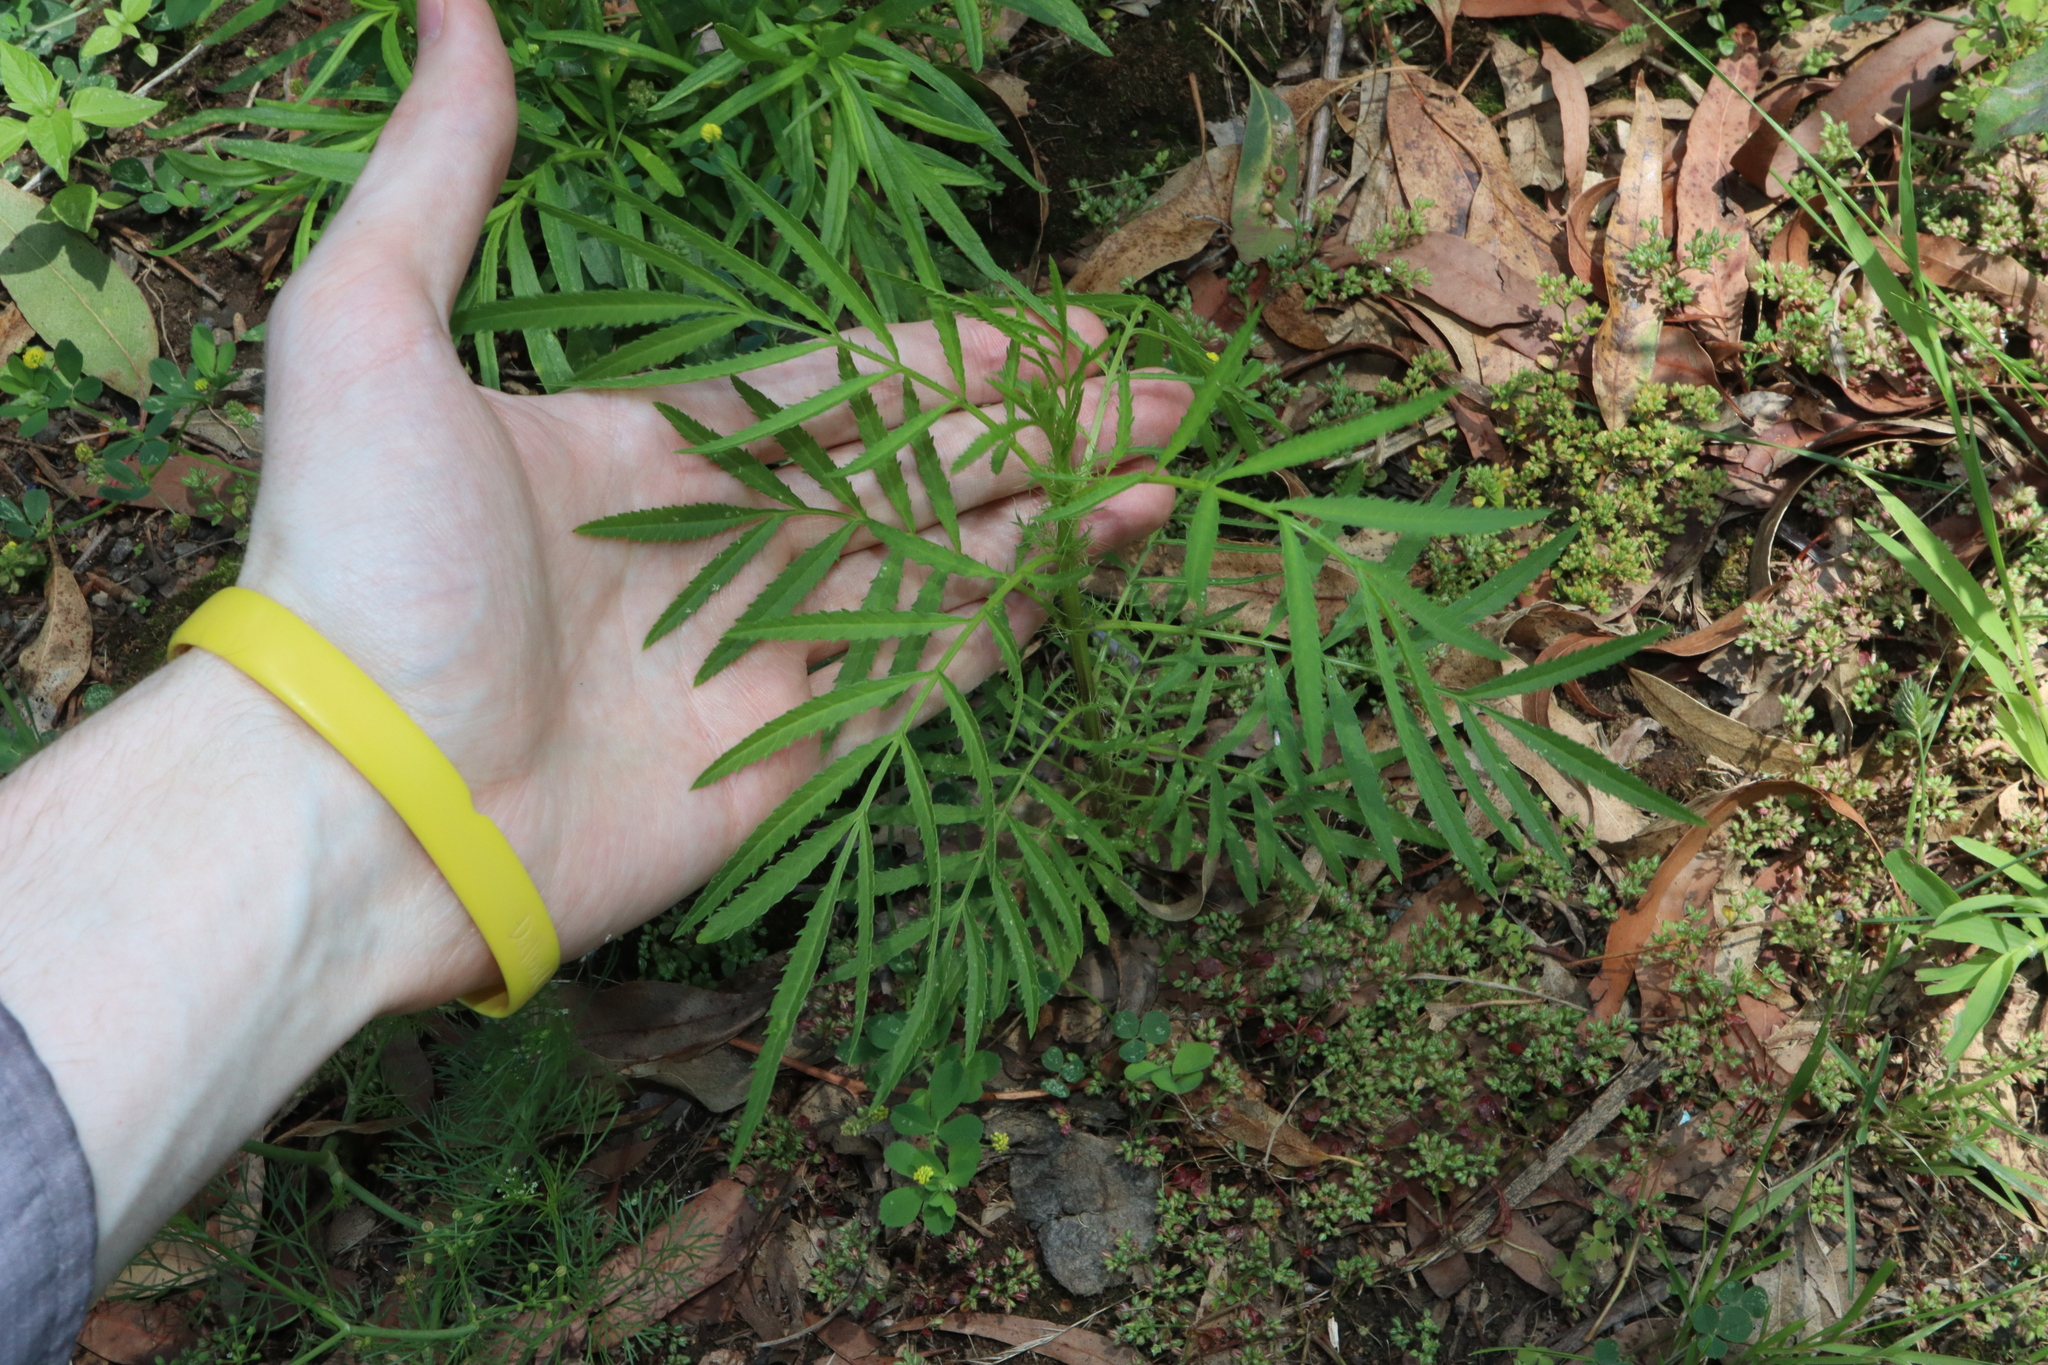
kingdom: Plantae
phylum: Tracheophyta
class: Magnoliopsida
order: Asterales
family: Asteraceae
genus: Tagetes
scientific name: Tagetes minuta
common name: Muster john henry
